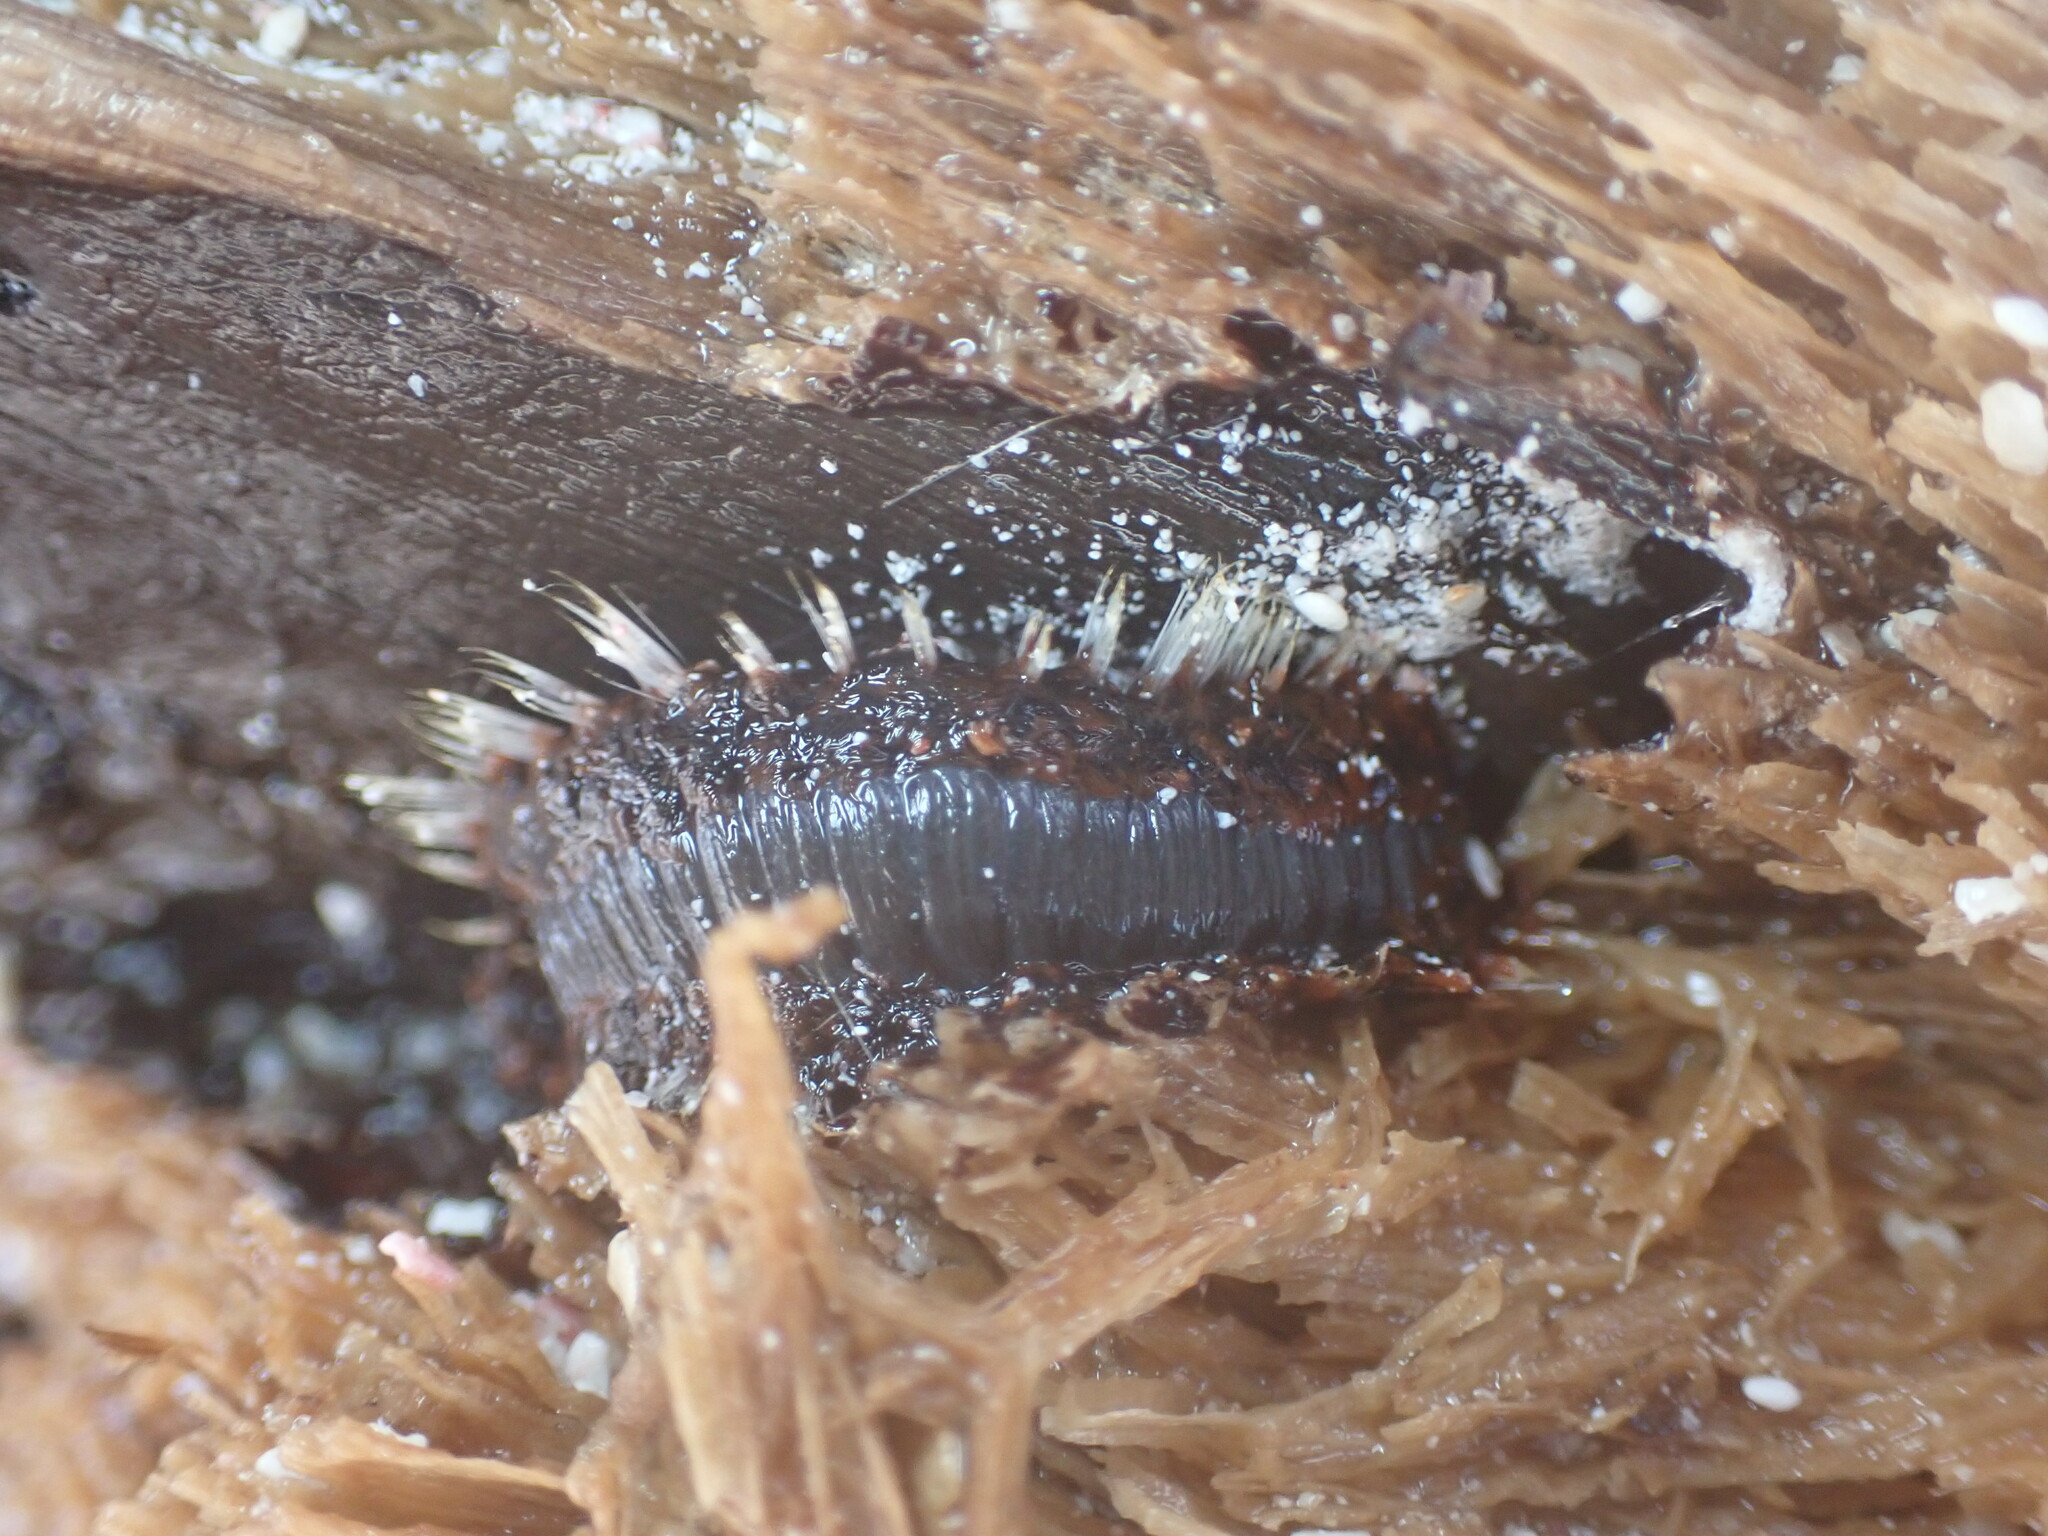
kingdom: Animalia
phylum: Annelida
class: Polychaeta
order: Amphinomida
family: Amphinomidae
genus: Amphinome
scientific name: Amphinome rostrata
